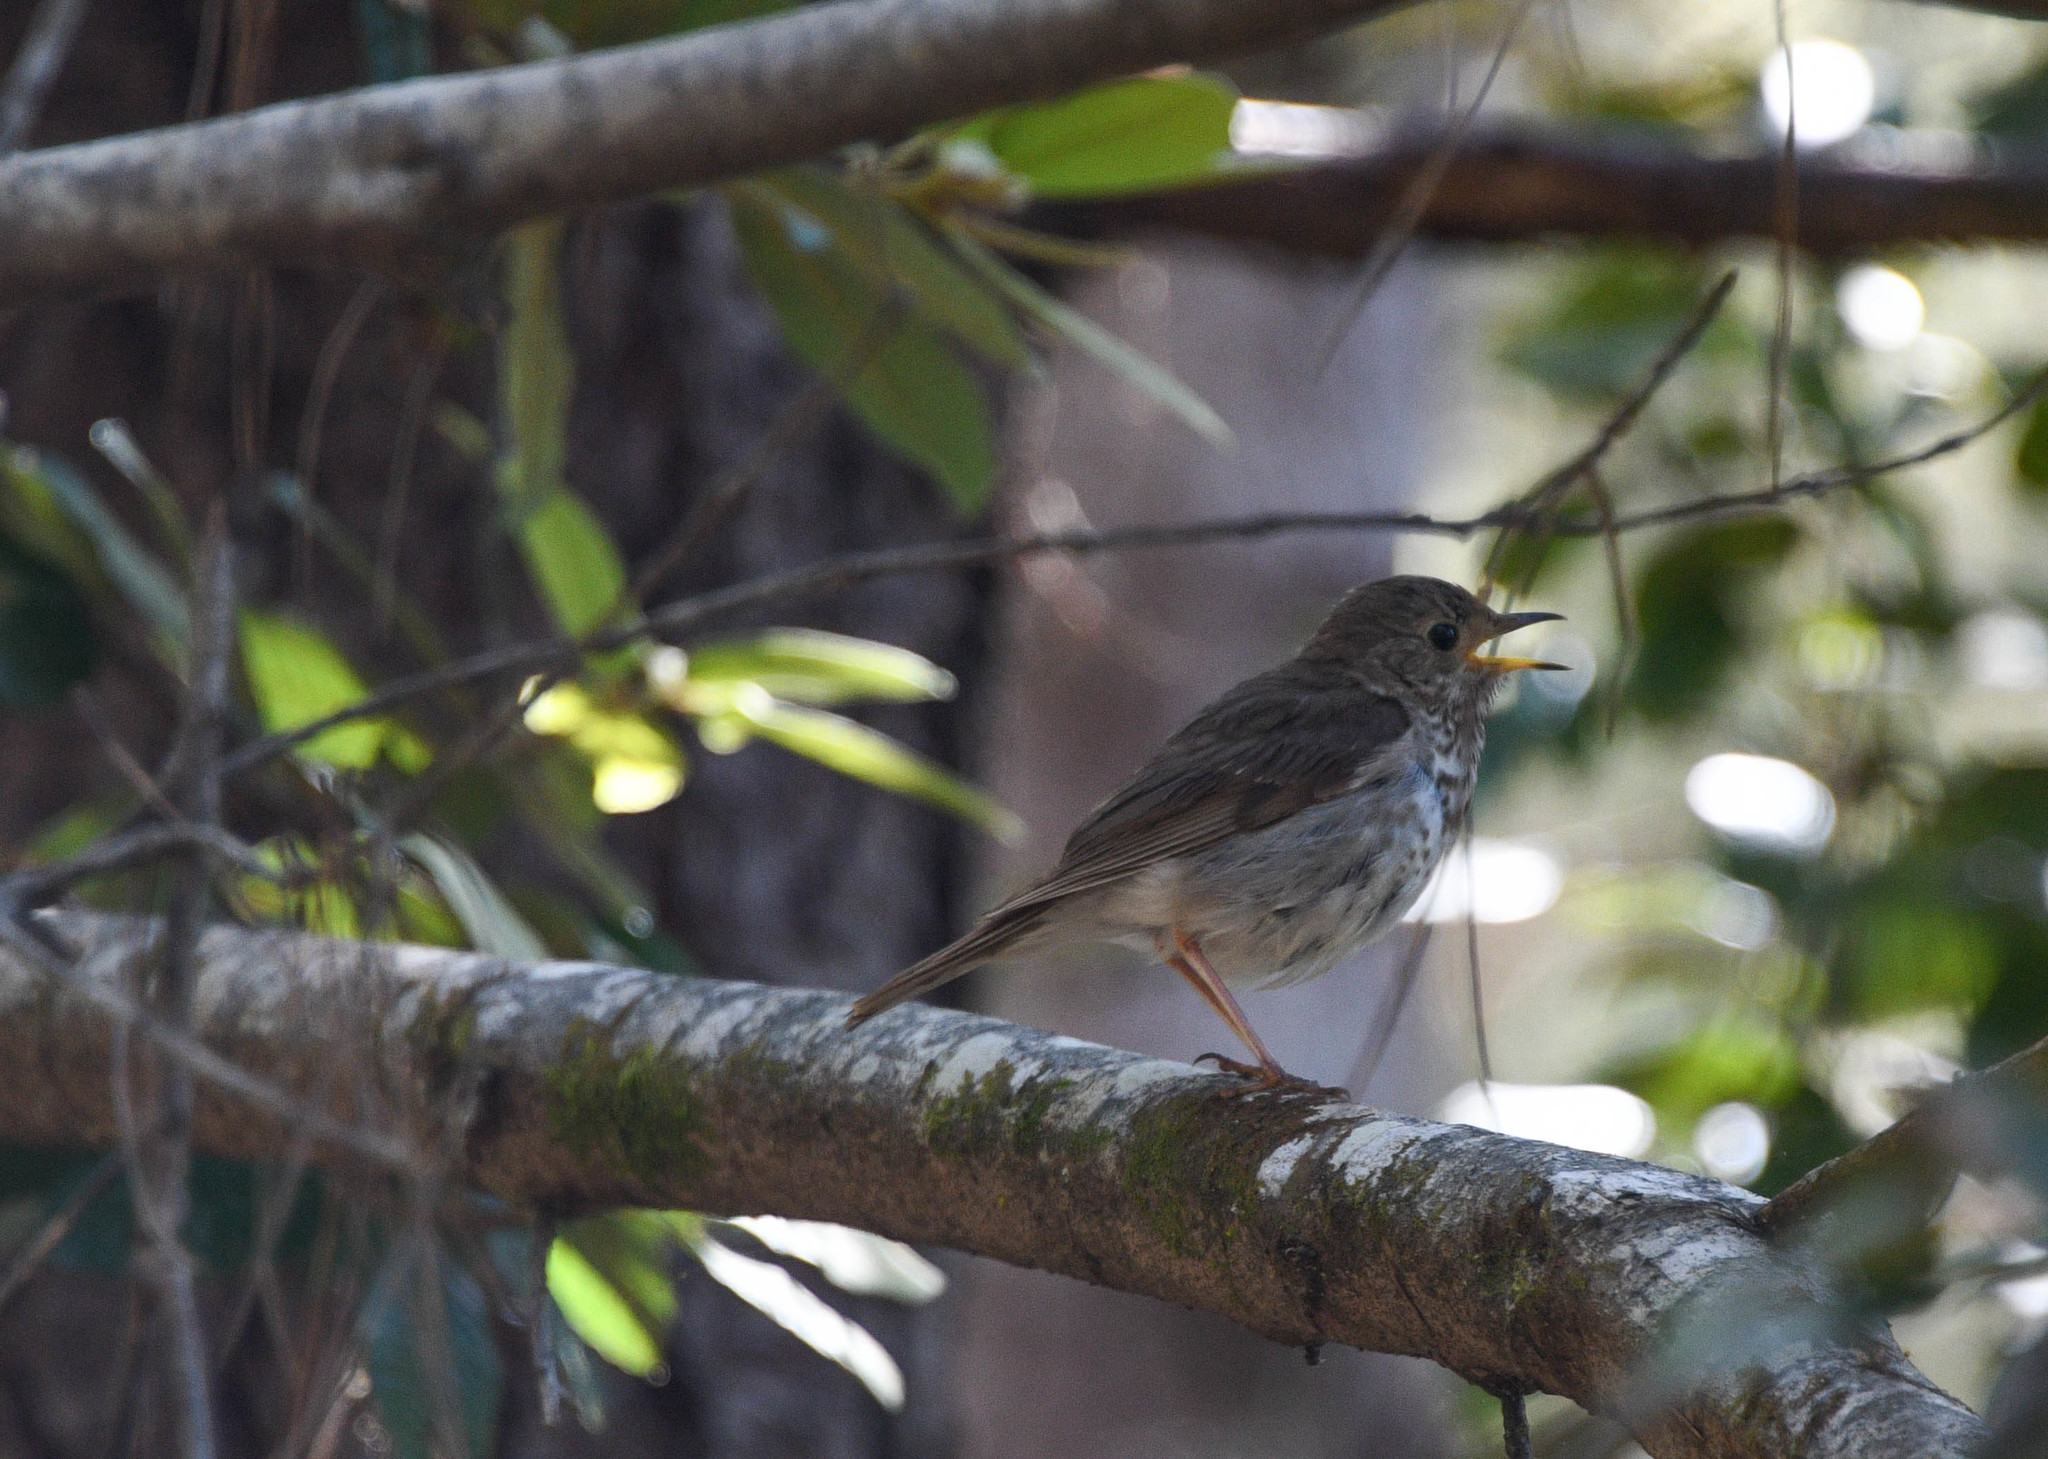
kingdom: Animalia
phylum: Chordata
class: Aves
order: Passeriformes
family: Turdidae
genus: Catharus
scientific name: Catharus ustulatus
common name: Swainson's thrush
